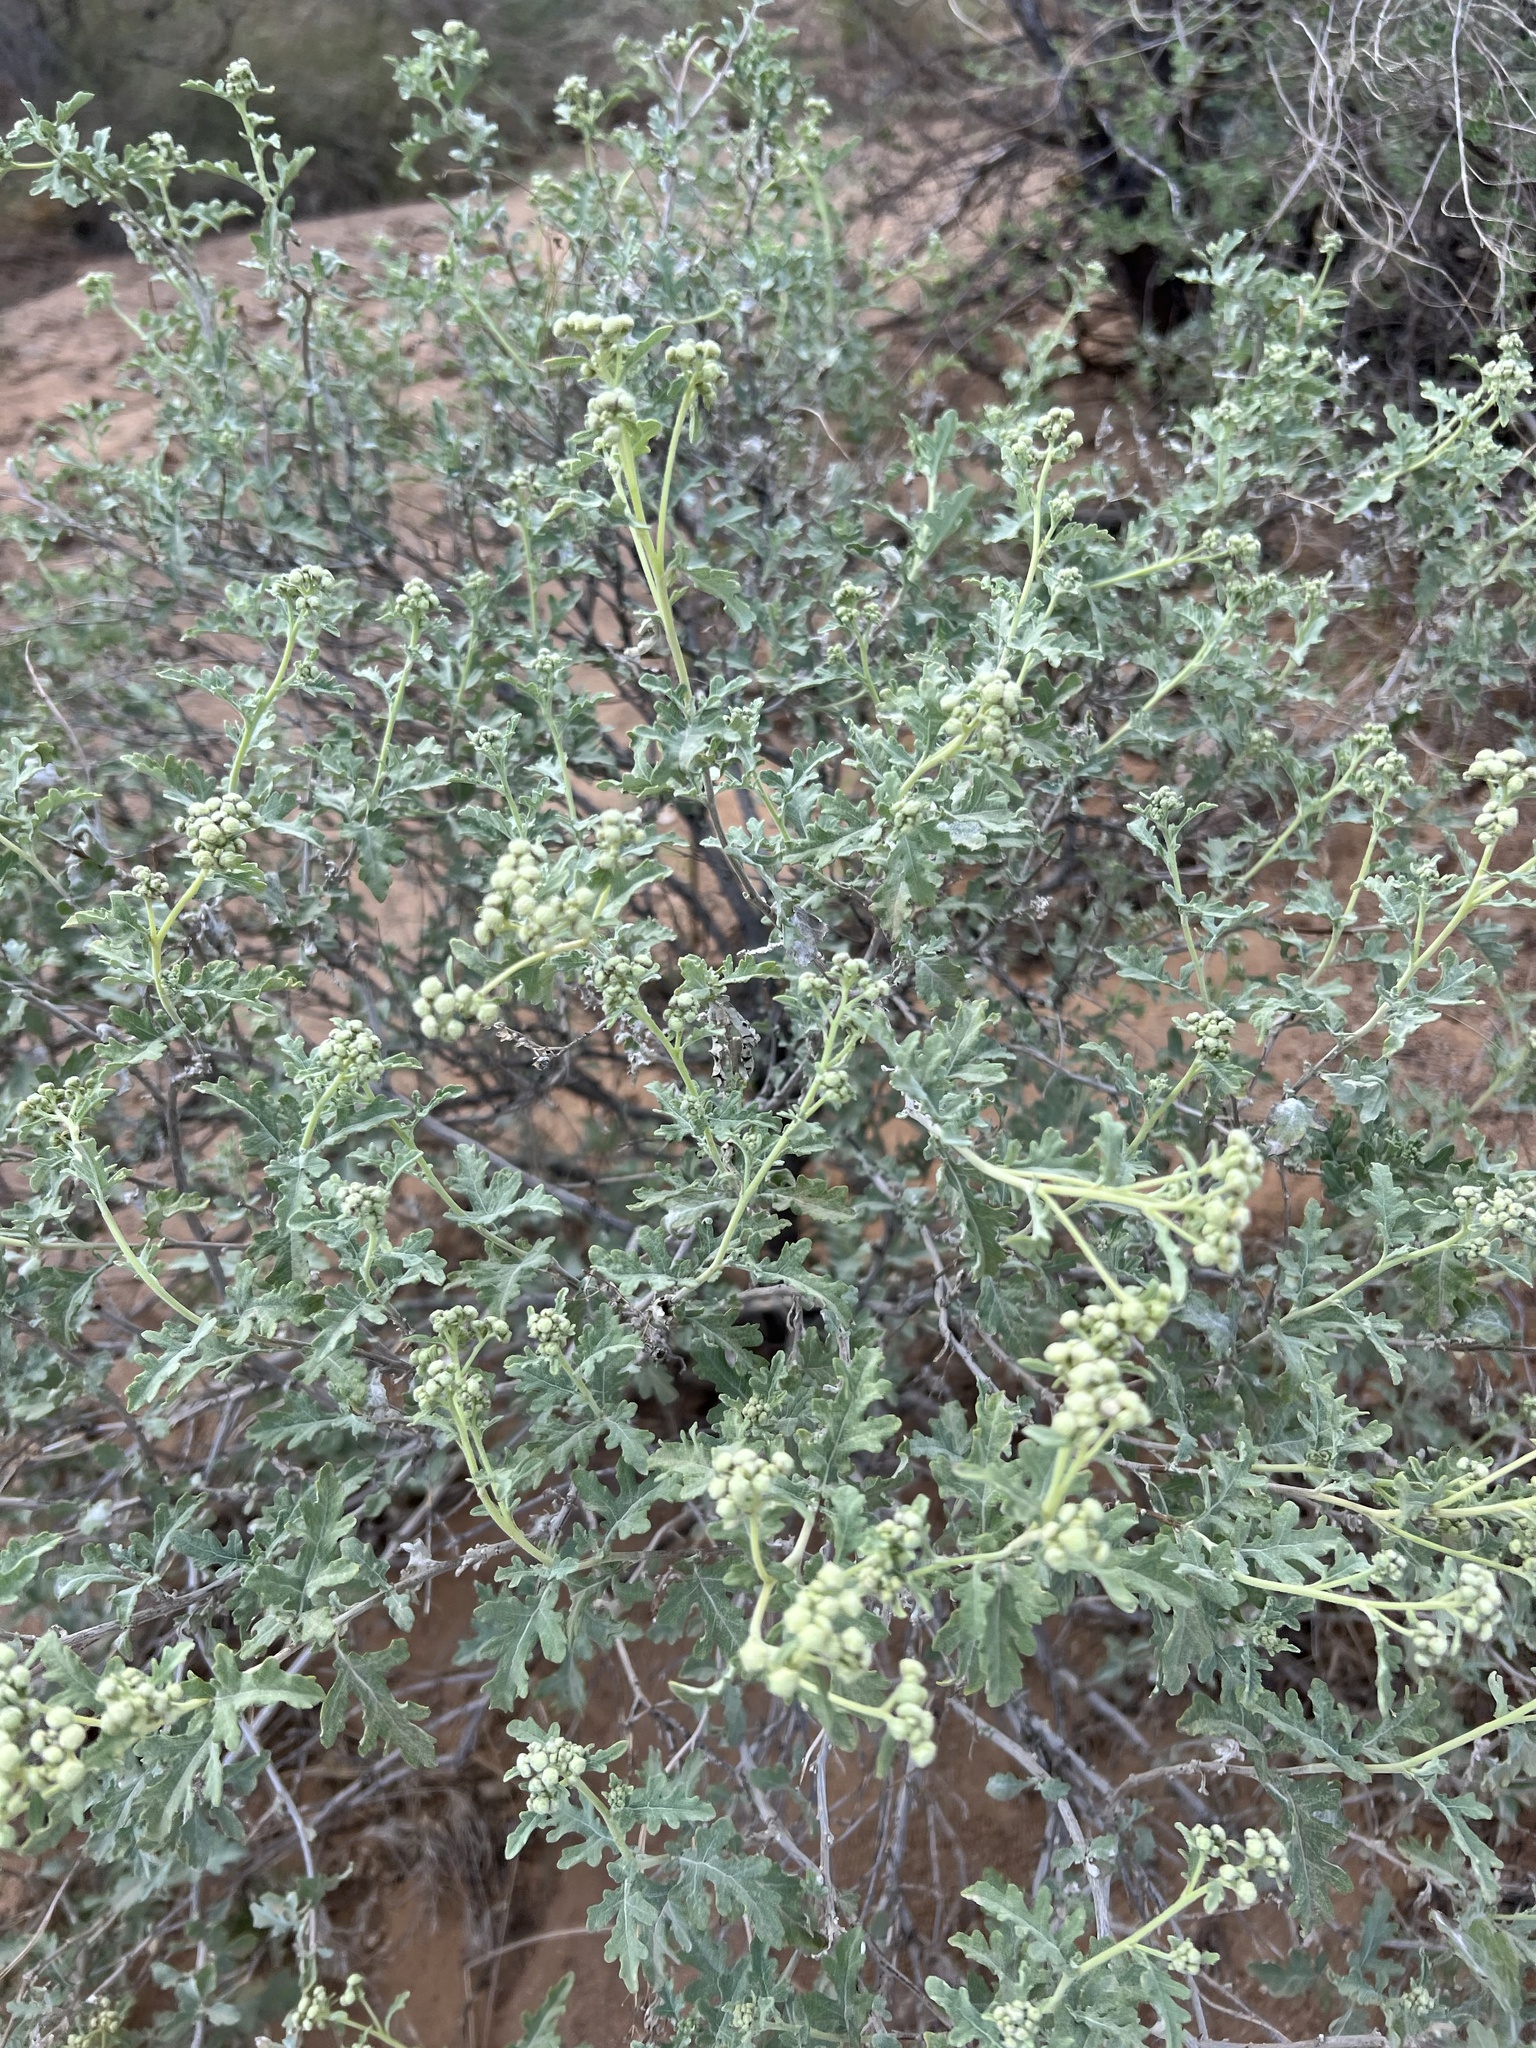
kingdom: Plantae
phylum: Tracheophyta
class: Magnoliopsida
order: Asterales
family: Asteraceae
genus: Parthenium
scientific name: Parthenium incanum
